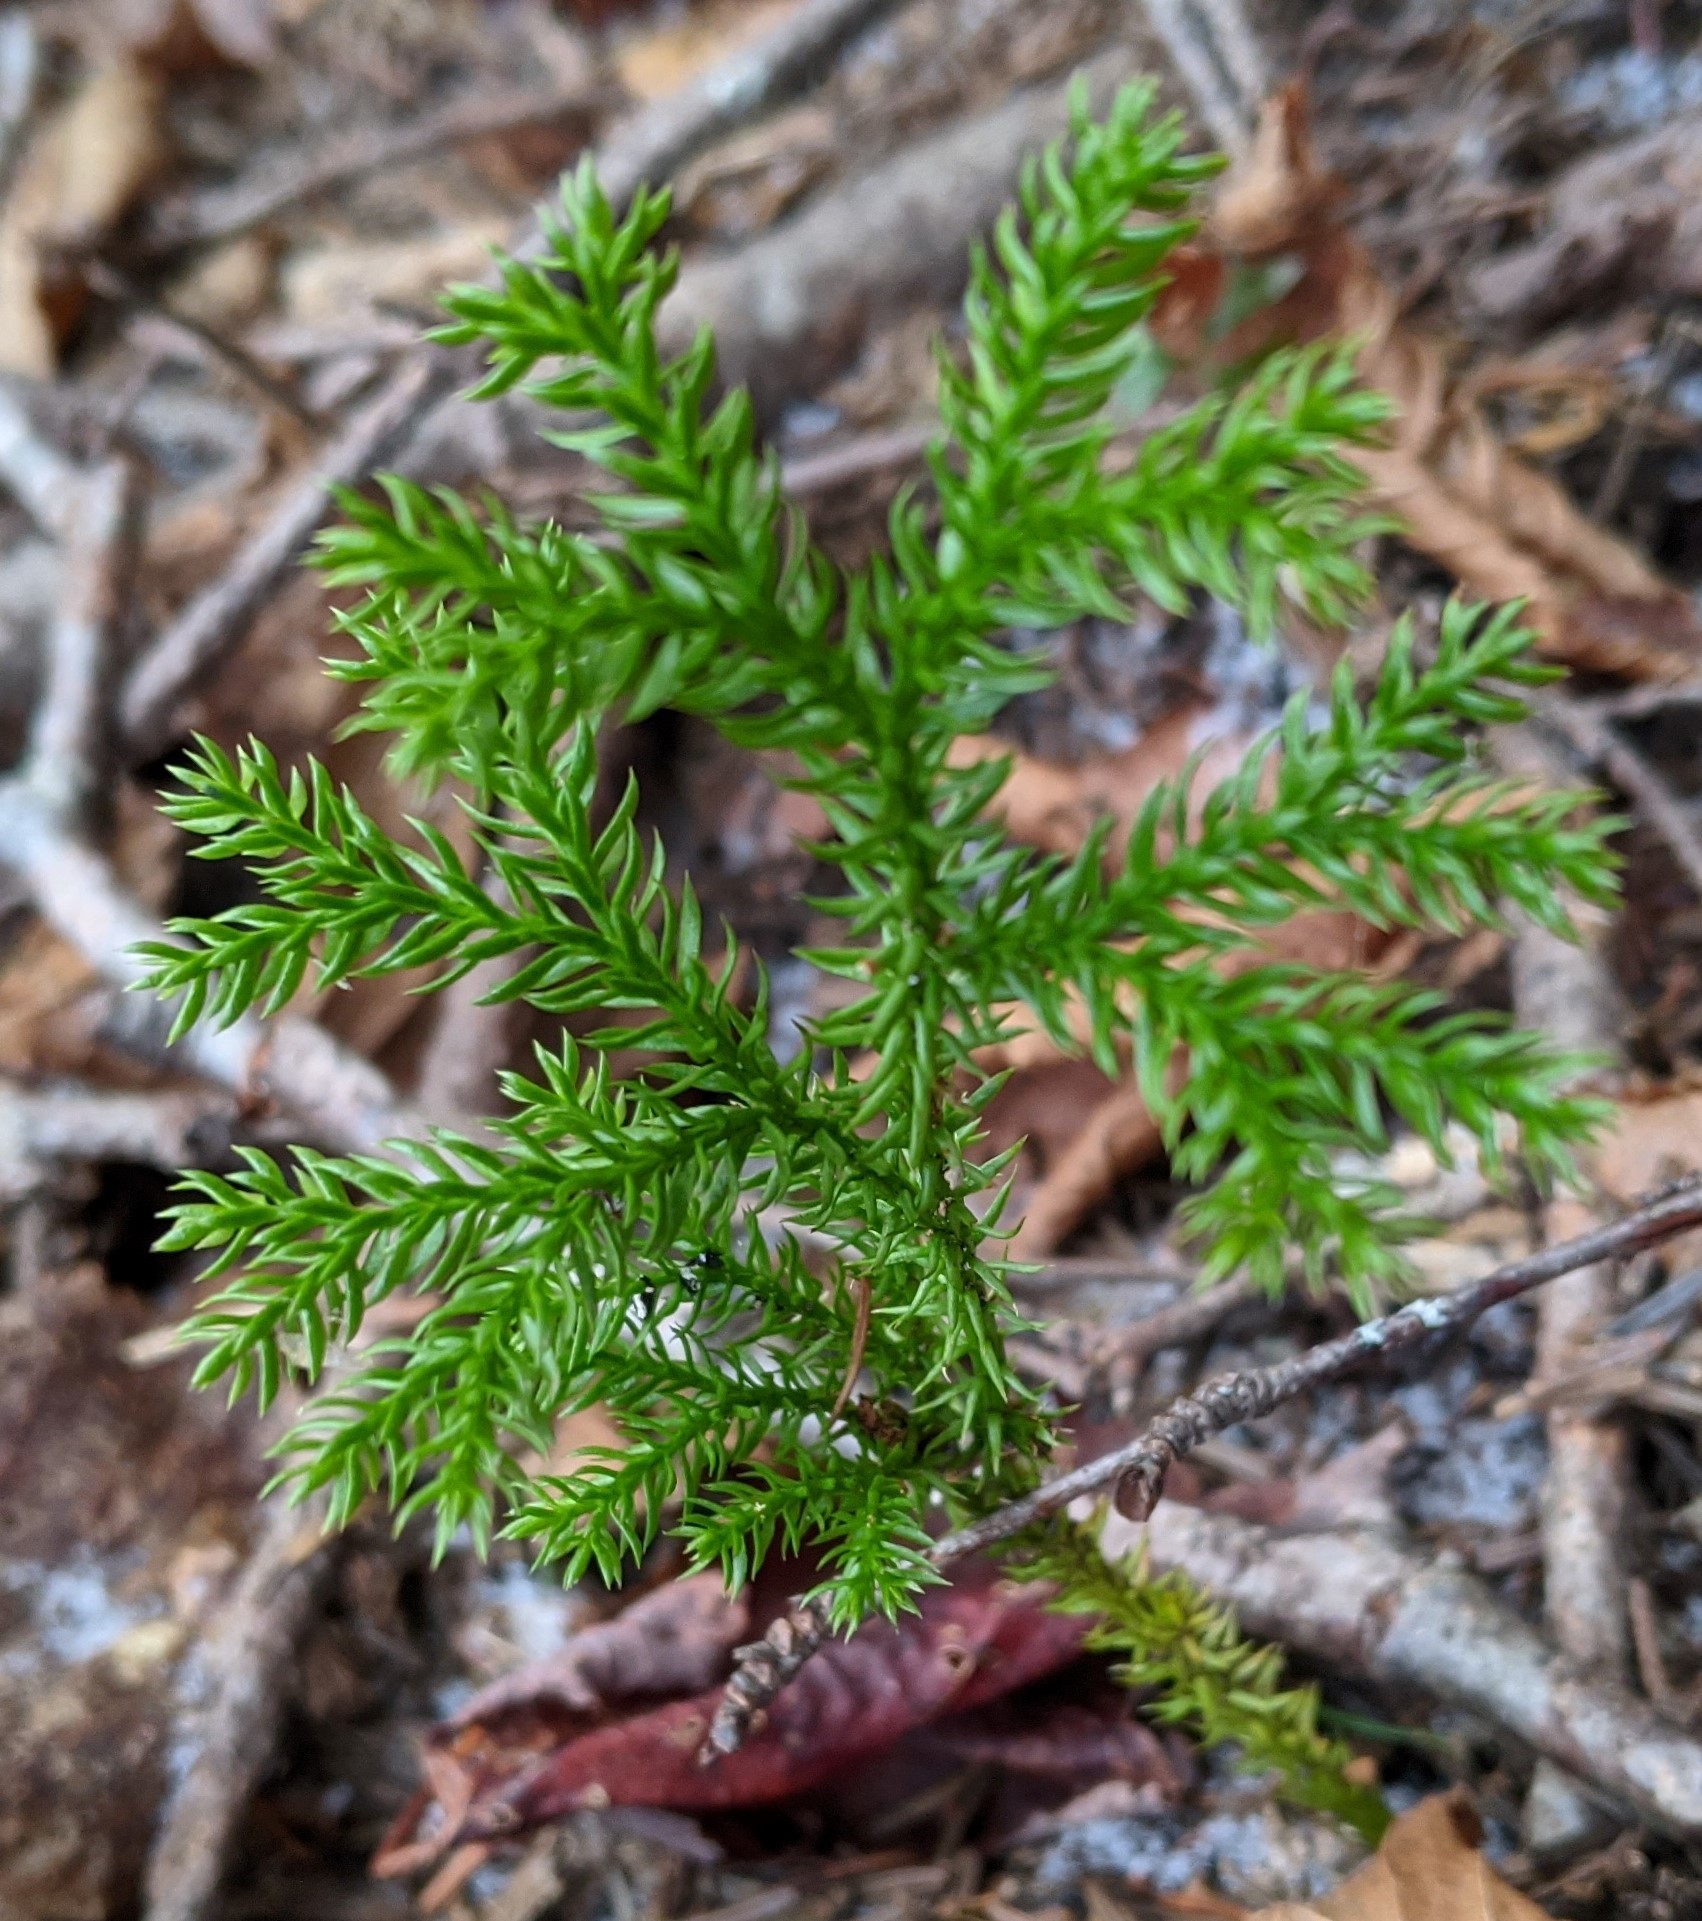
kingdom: Plantae
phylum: Tracheophyta
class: Lycopodiopsida
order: Lycopodiales
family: Lycopodiaceae
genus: Dendrolycopodium
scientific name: Dendrolycopodium dendroideum
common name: Northern tree-clubmoss
